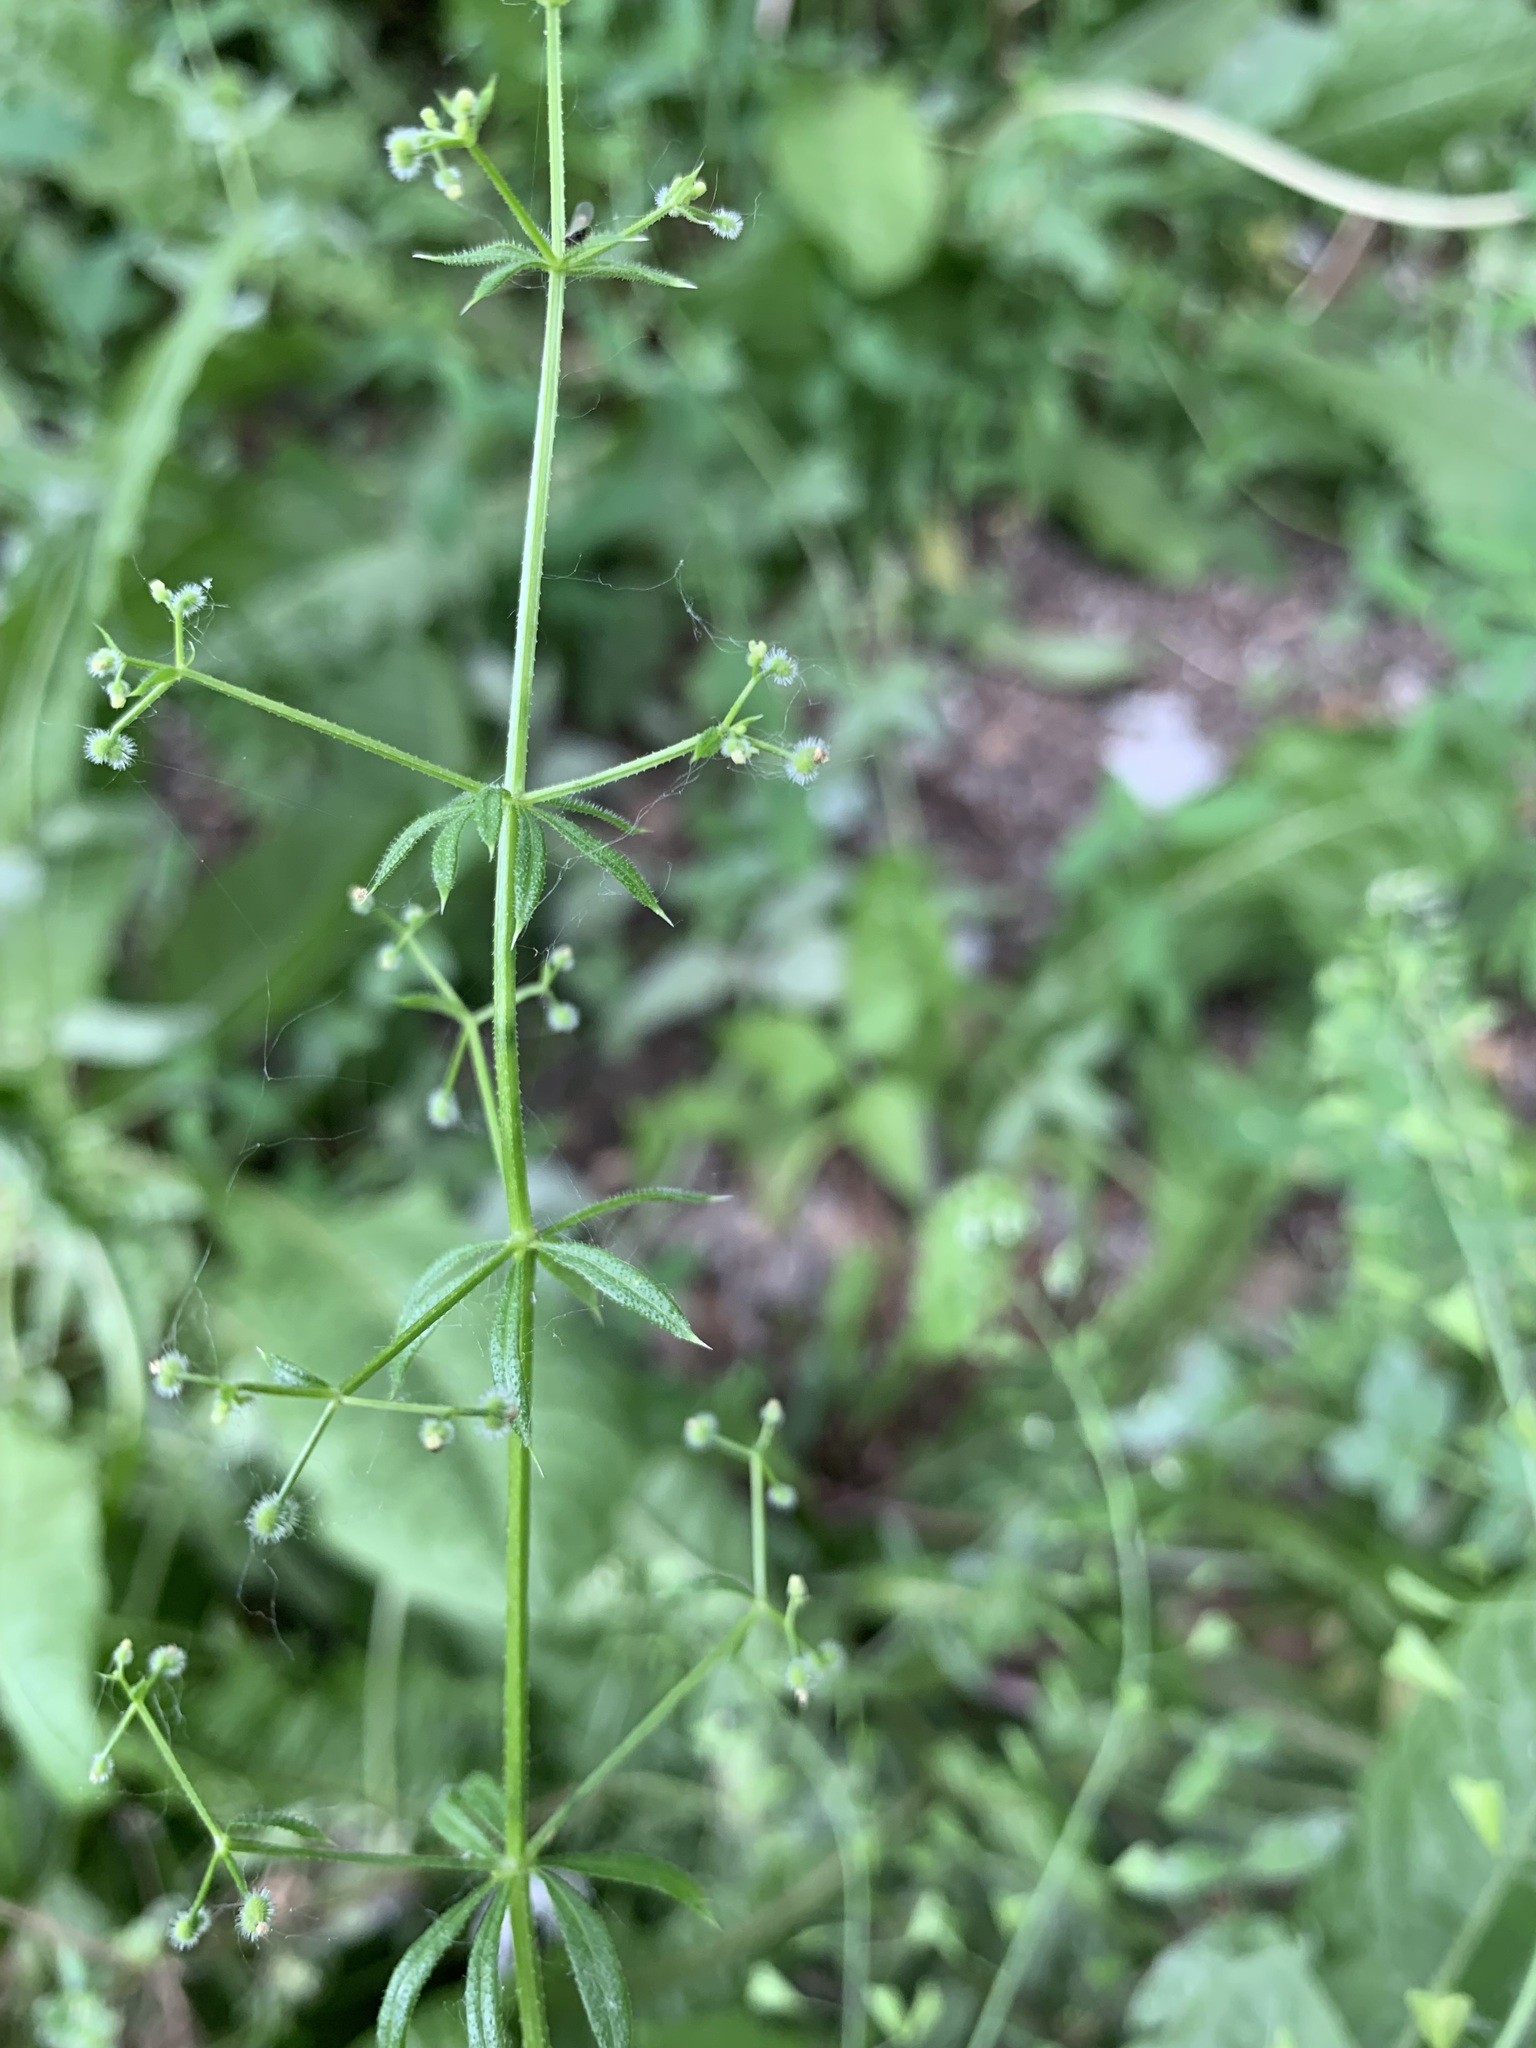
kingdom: Plantae
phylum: Tracheophyta
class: Magnoliopsida
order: Gentianales
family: Rubiaceae
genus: Galium
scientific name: Galium spurium
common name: False cleavers
